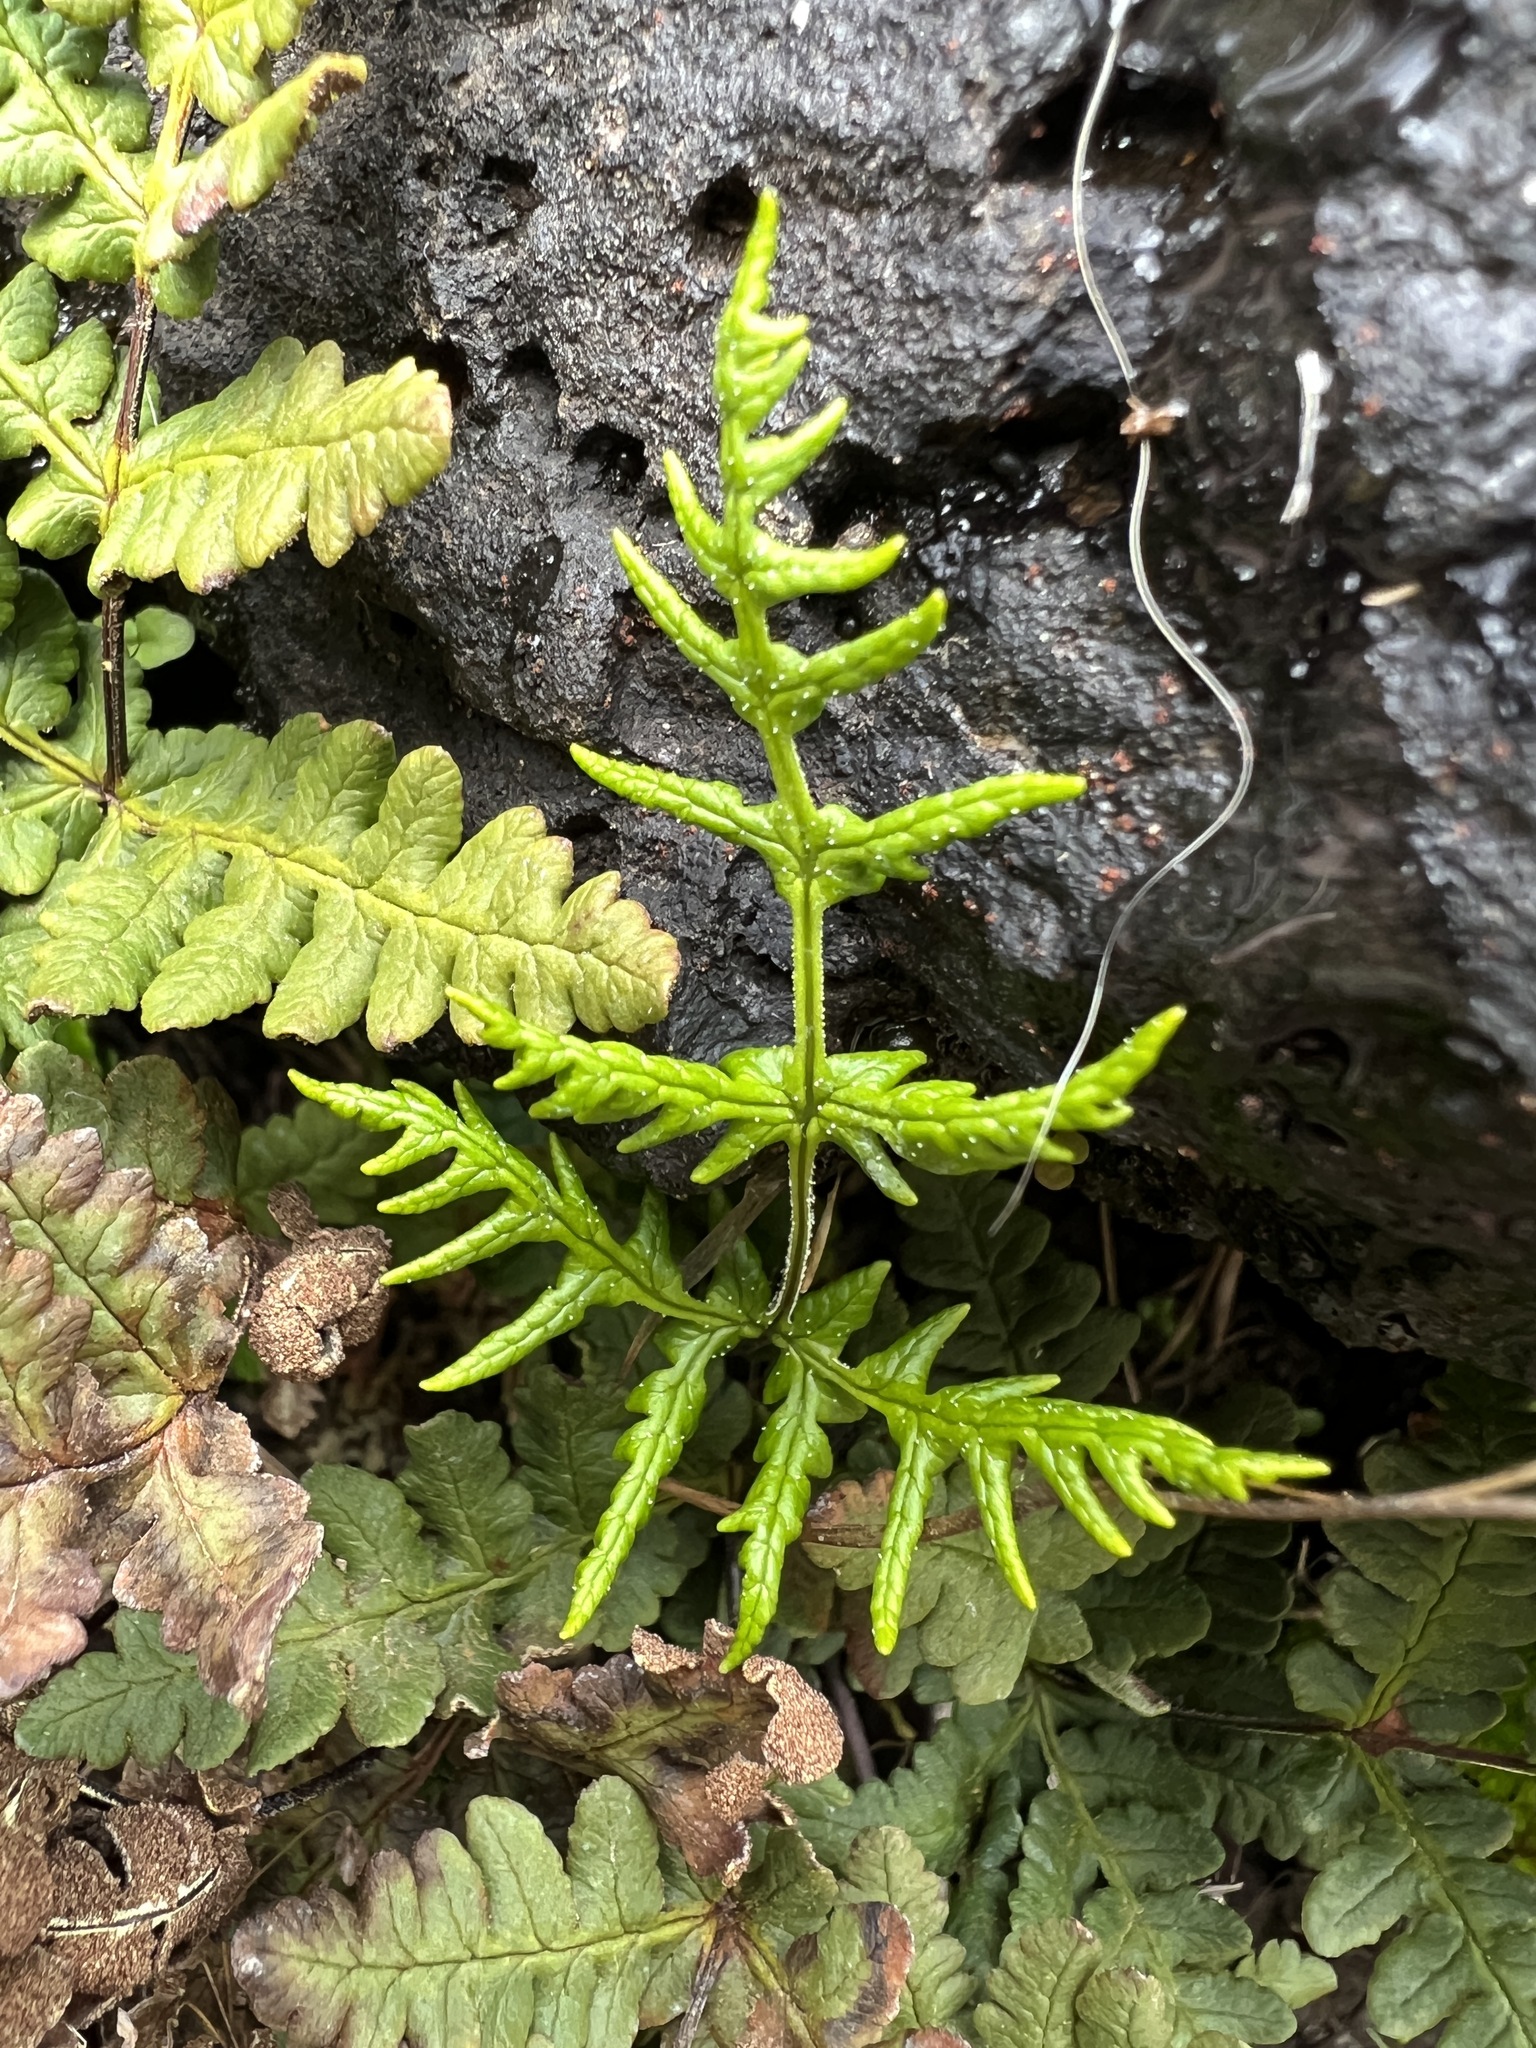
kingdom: Plantae
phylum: Tracheophyta
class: Polypodiopsida
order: Polypodiales
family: Pteridaceae
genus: Pentagramma
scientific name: Pentagramma triangularis
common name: Gold fern
